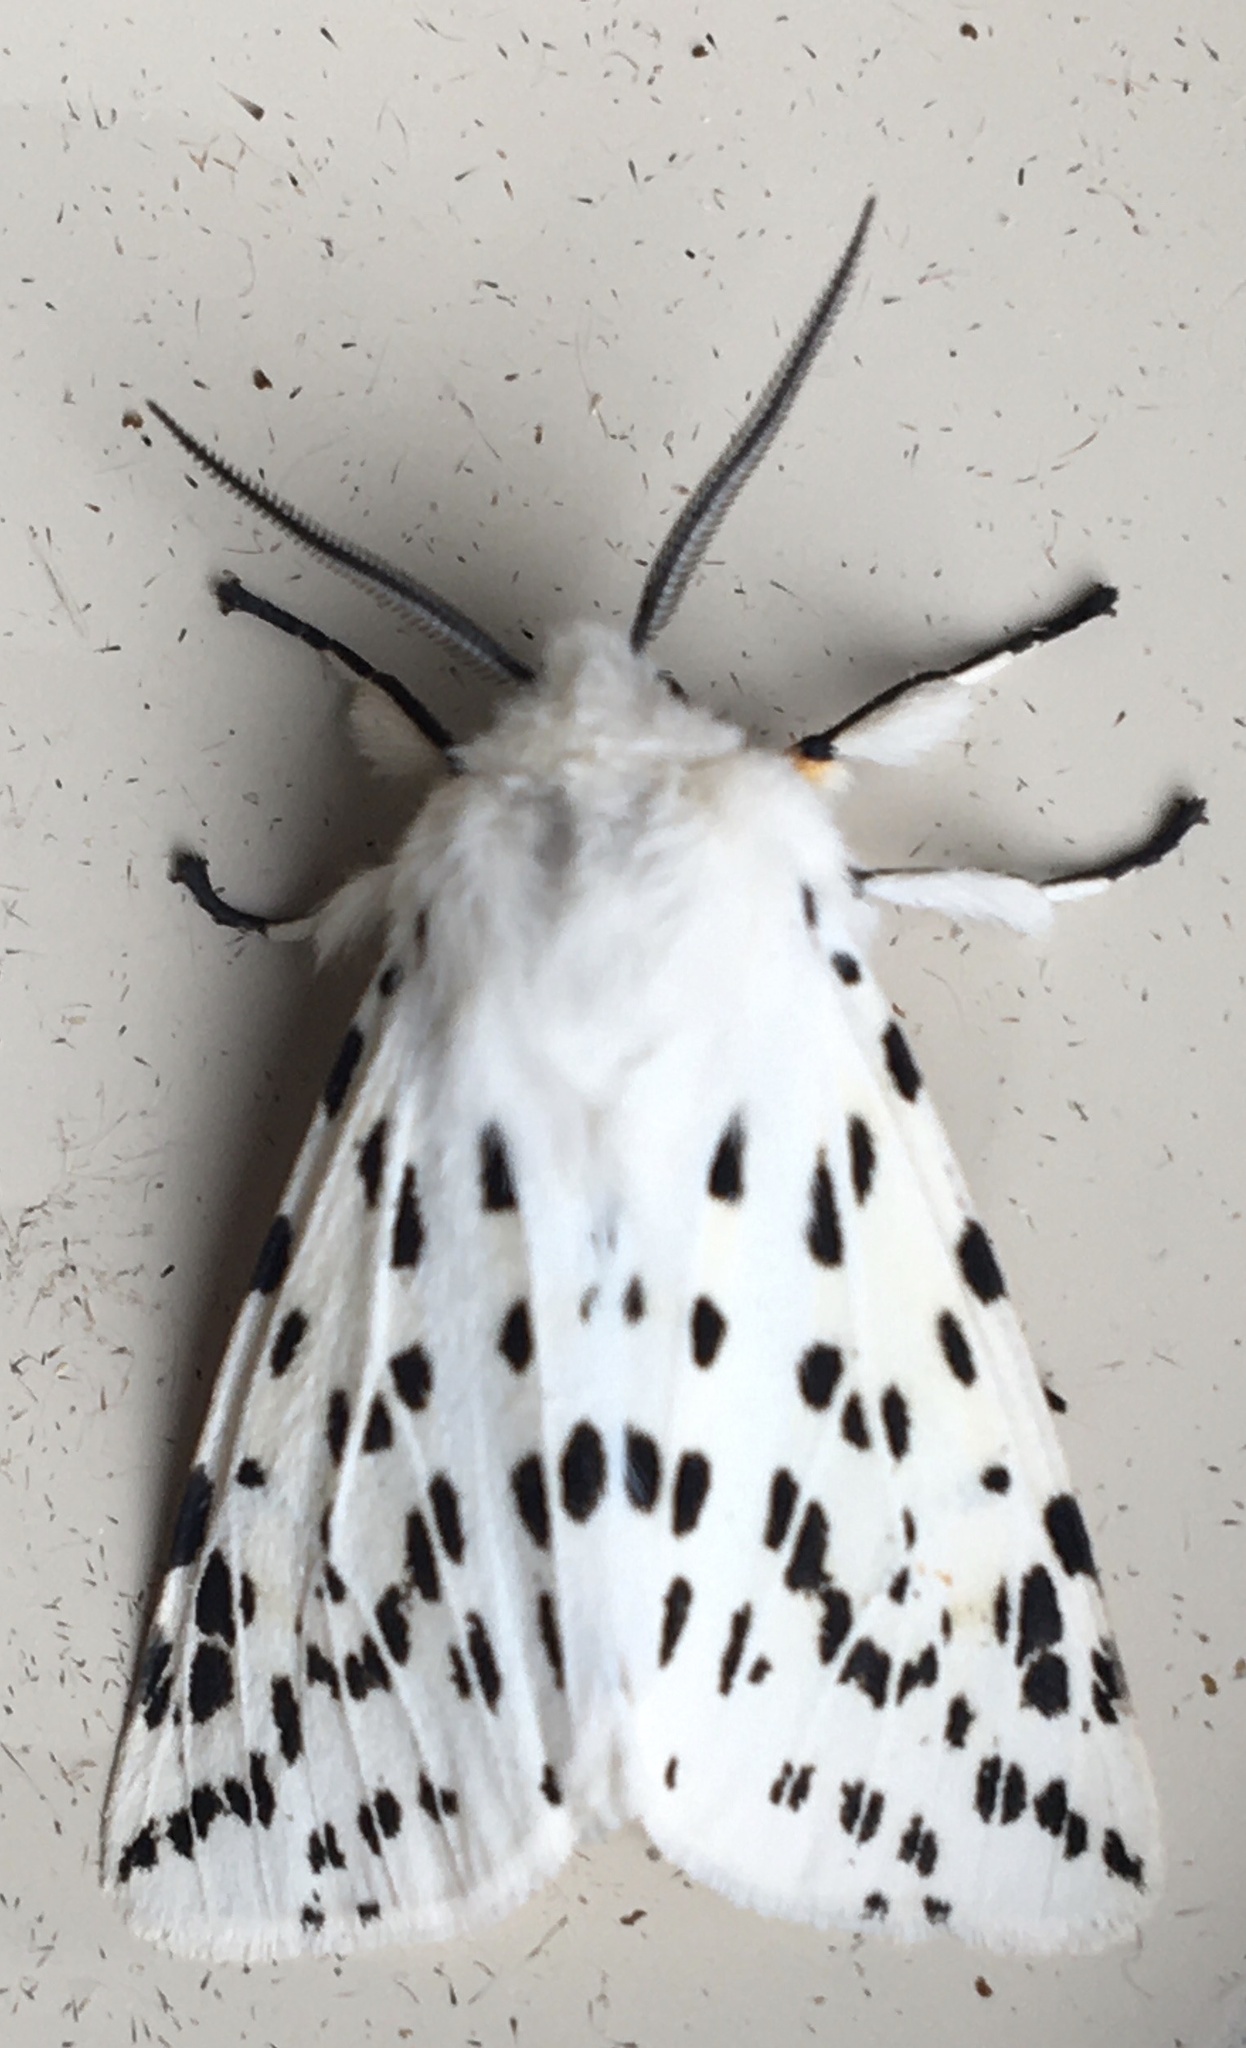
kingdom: Animalia
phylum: Arthropoda
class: Insecta
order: Lepidoptera
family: Erebidae
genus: Spilosoma
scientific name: Spilosoma lubricipeda
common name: White ermine
